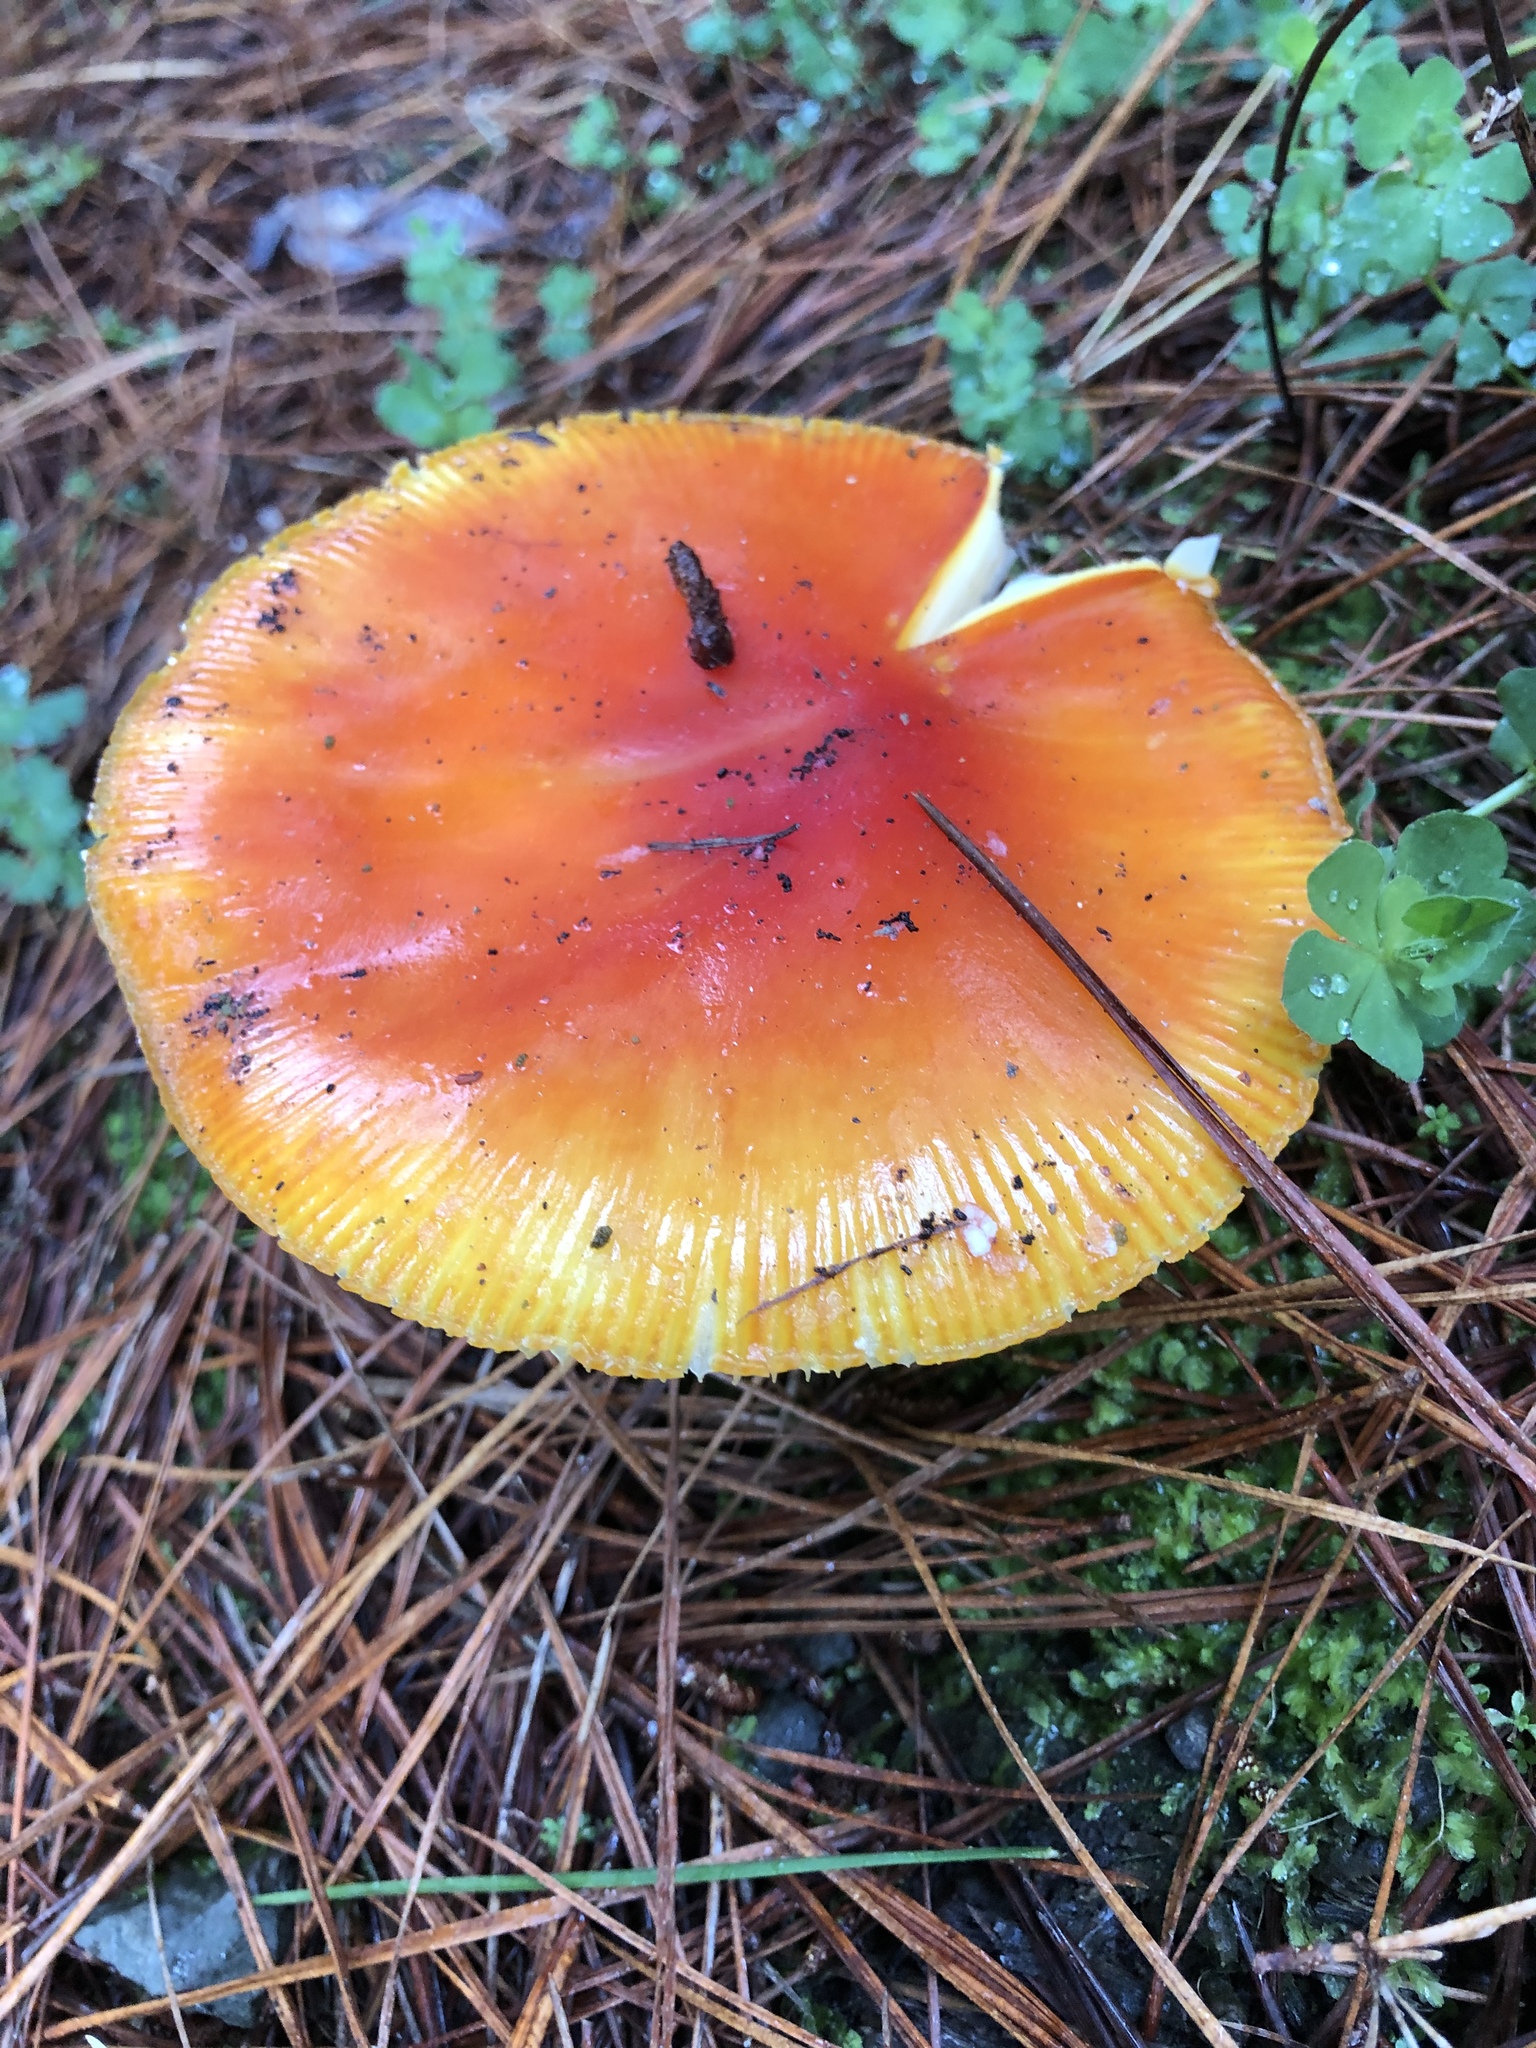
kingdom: Fungi
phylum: Basidiomycota
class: Agaricomycetes
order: Agaricales
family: Amanitaceae
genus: Amanita
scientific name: Amanita muscaria
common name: Fly agaric
